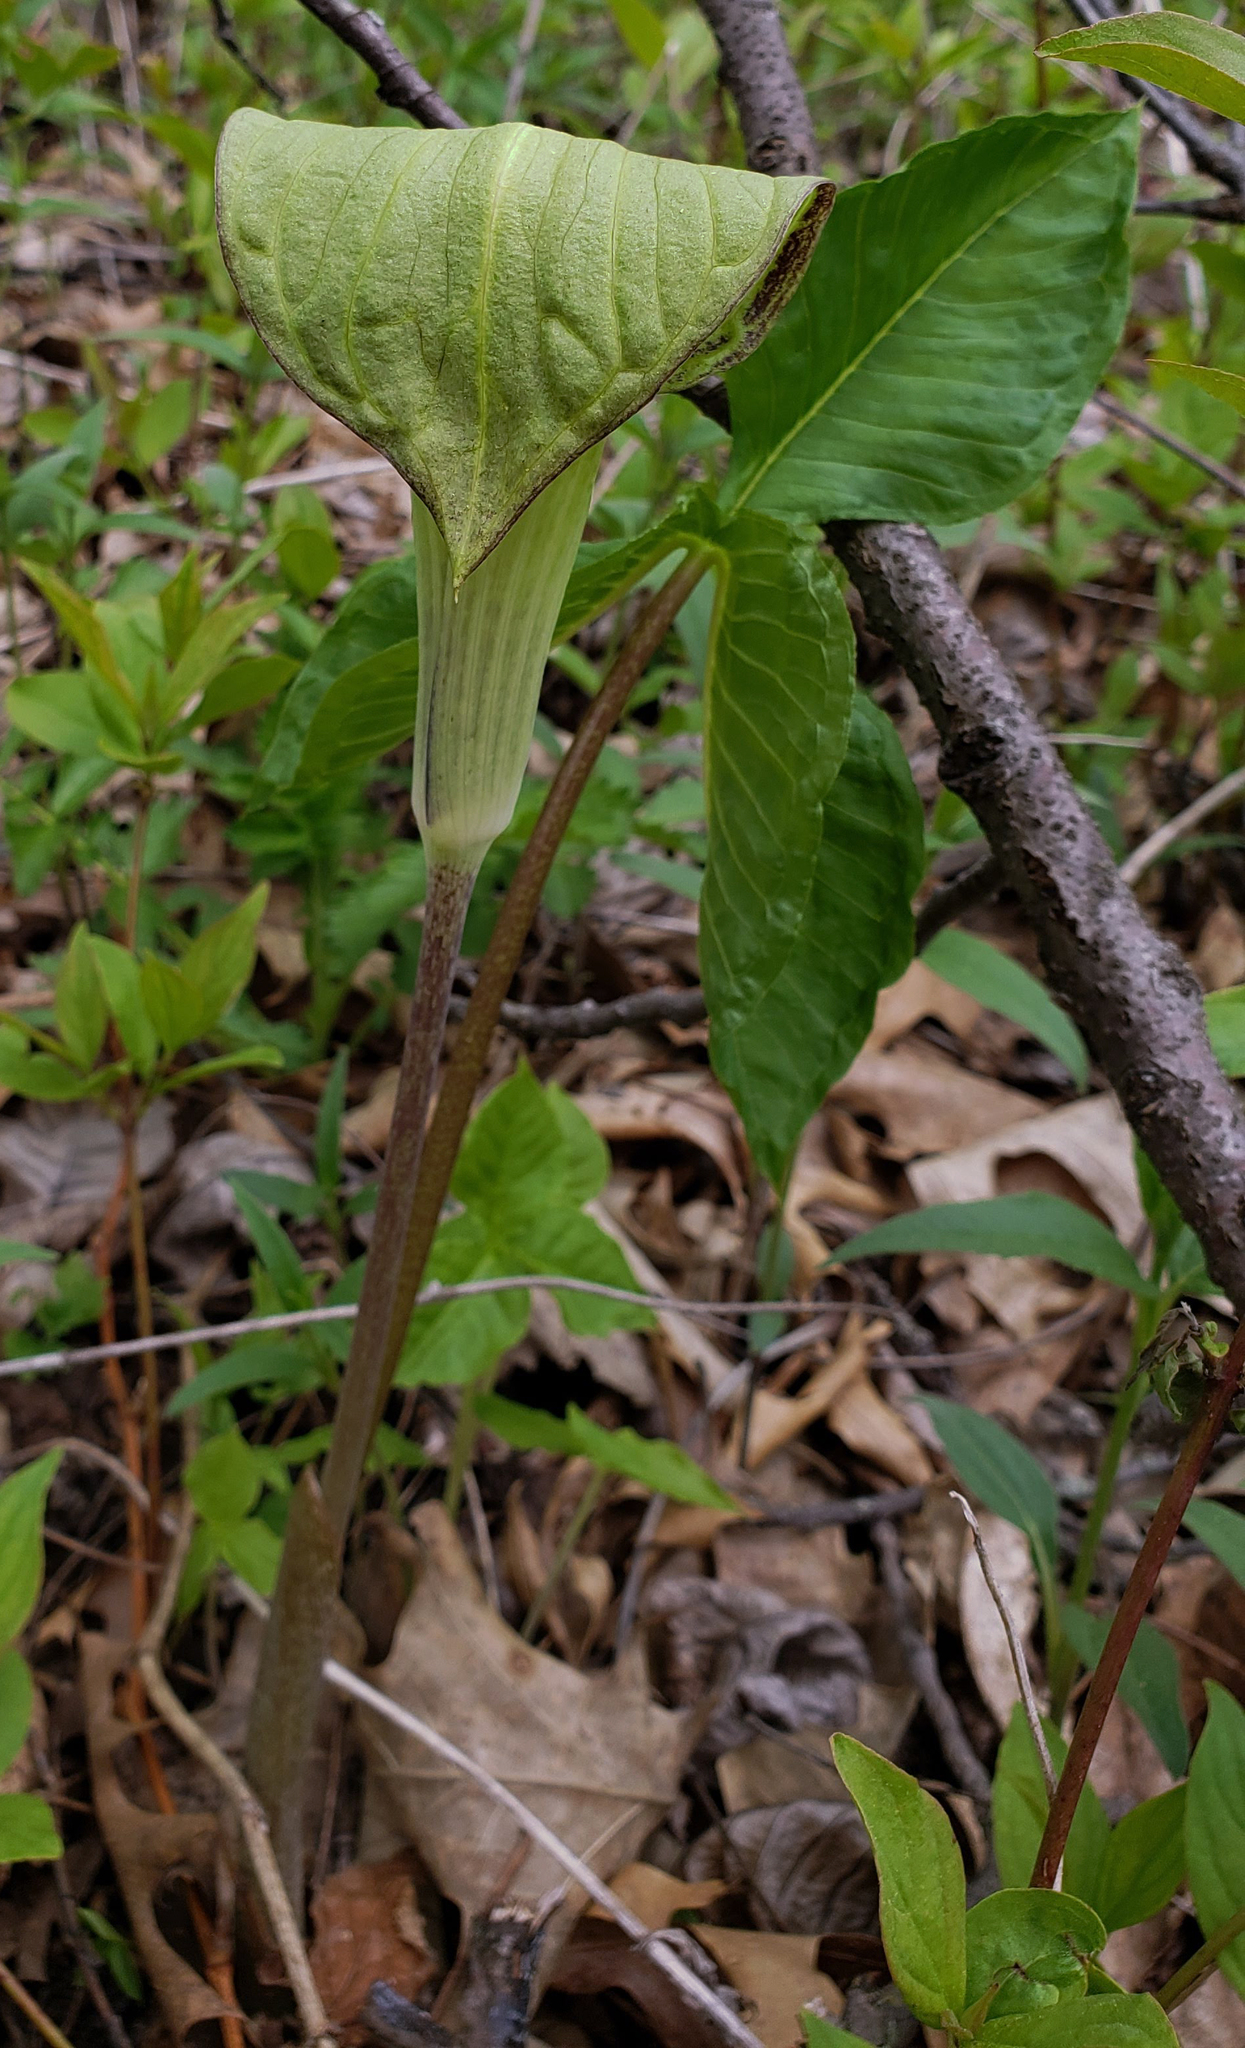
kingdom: Plantae
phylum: Tracheophyta
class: Liliopsida
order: Alismatales
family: Araceae
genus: Arisaema
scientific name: Arisaema triphyllum
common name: Jack-in-the-pulpit
